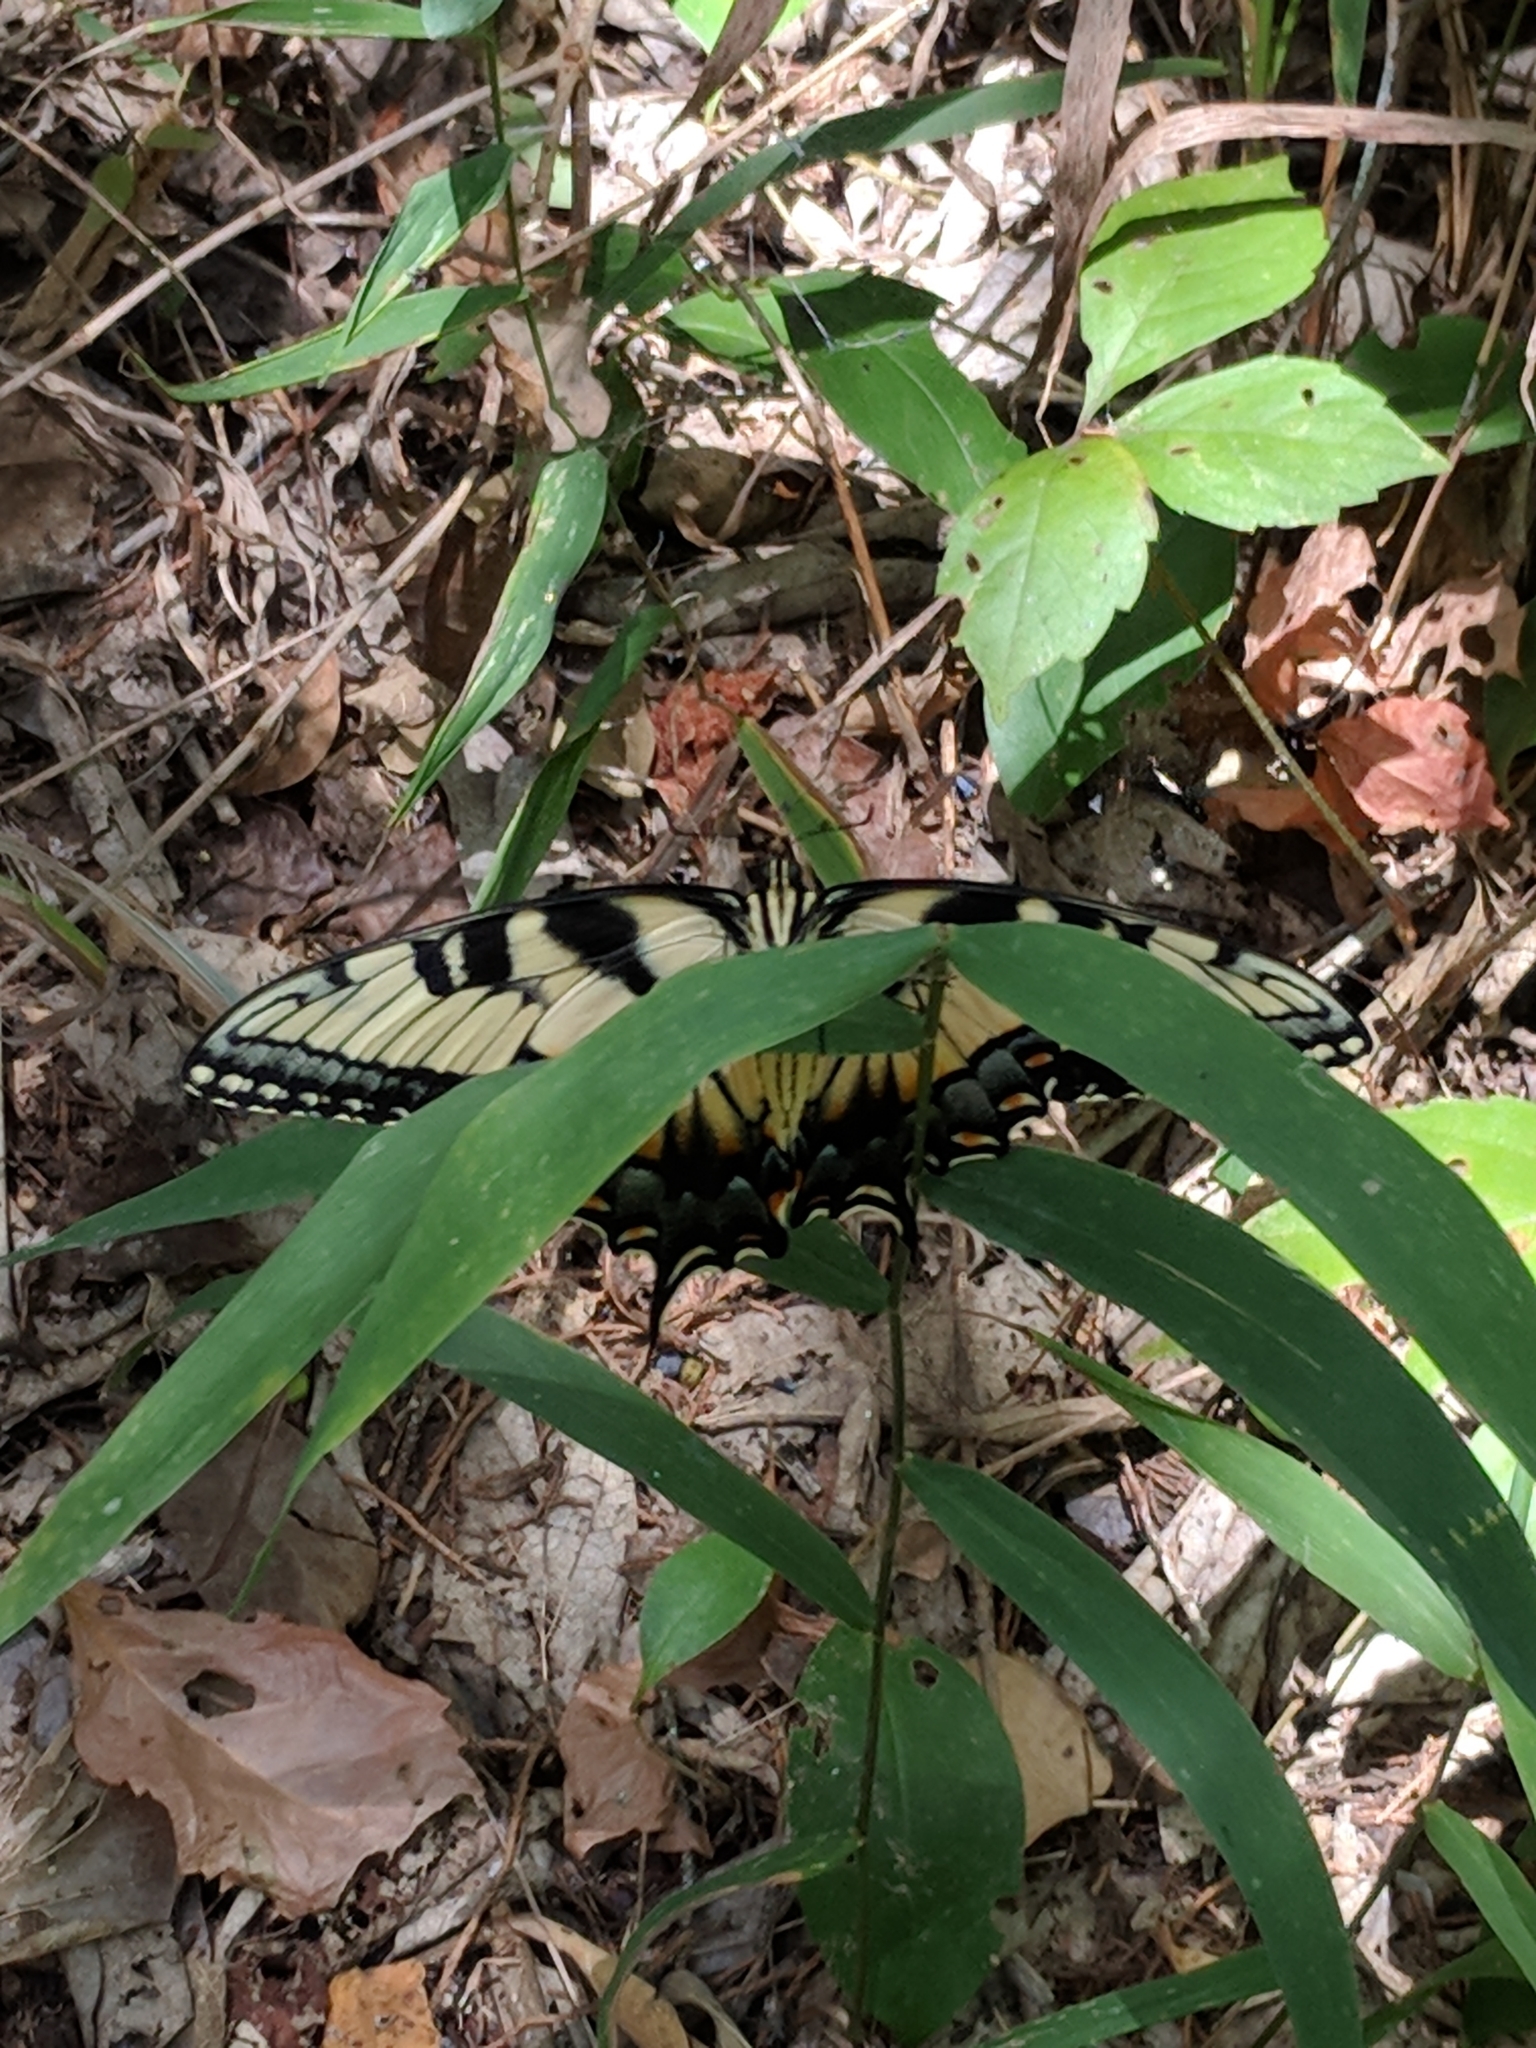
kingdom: Animalia
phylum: Arthropoda
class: Insecta
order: Lepidoptera
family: Papilionidae
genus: Papilio
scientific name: Papilio glaucus
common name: Tiger swallowtail
